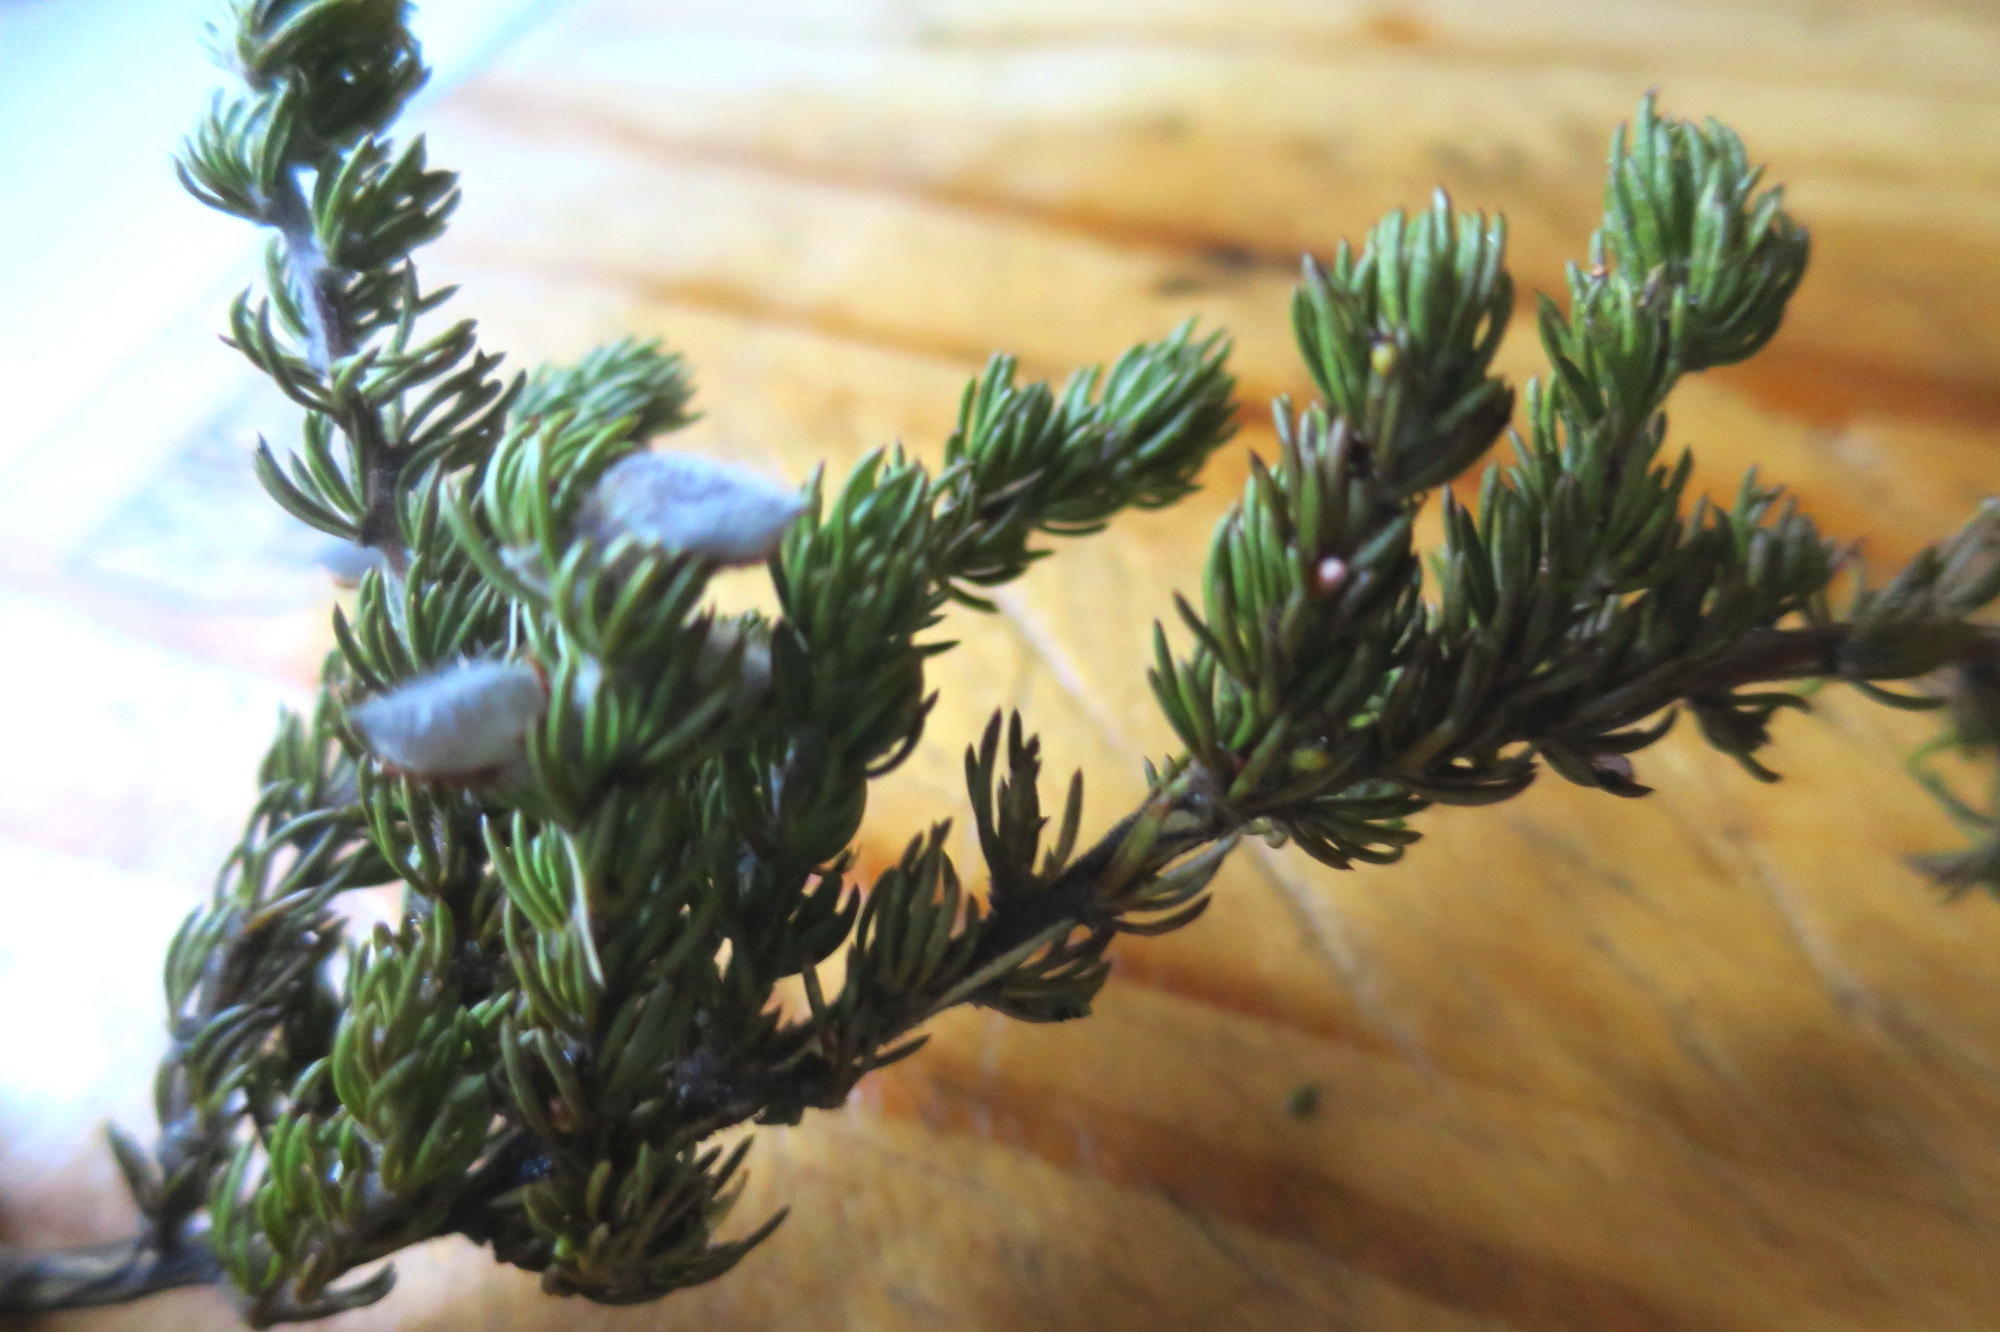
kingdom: Plantae
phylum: Tracheophyta
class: Magnoliopsida
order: Fabales
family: Fabaceae
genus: Aspalathus
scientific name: Aspalathus congesta
